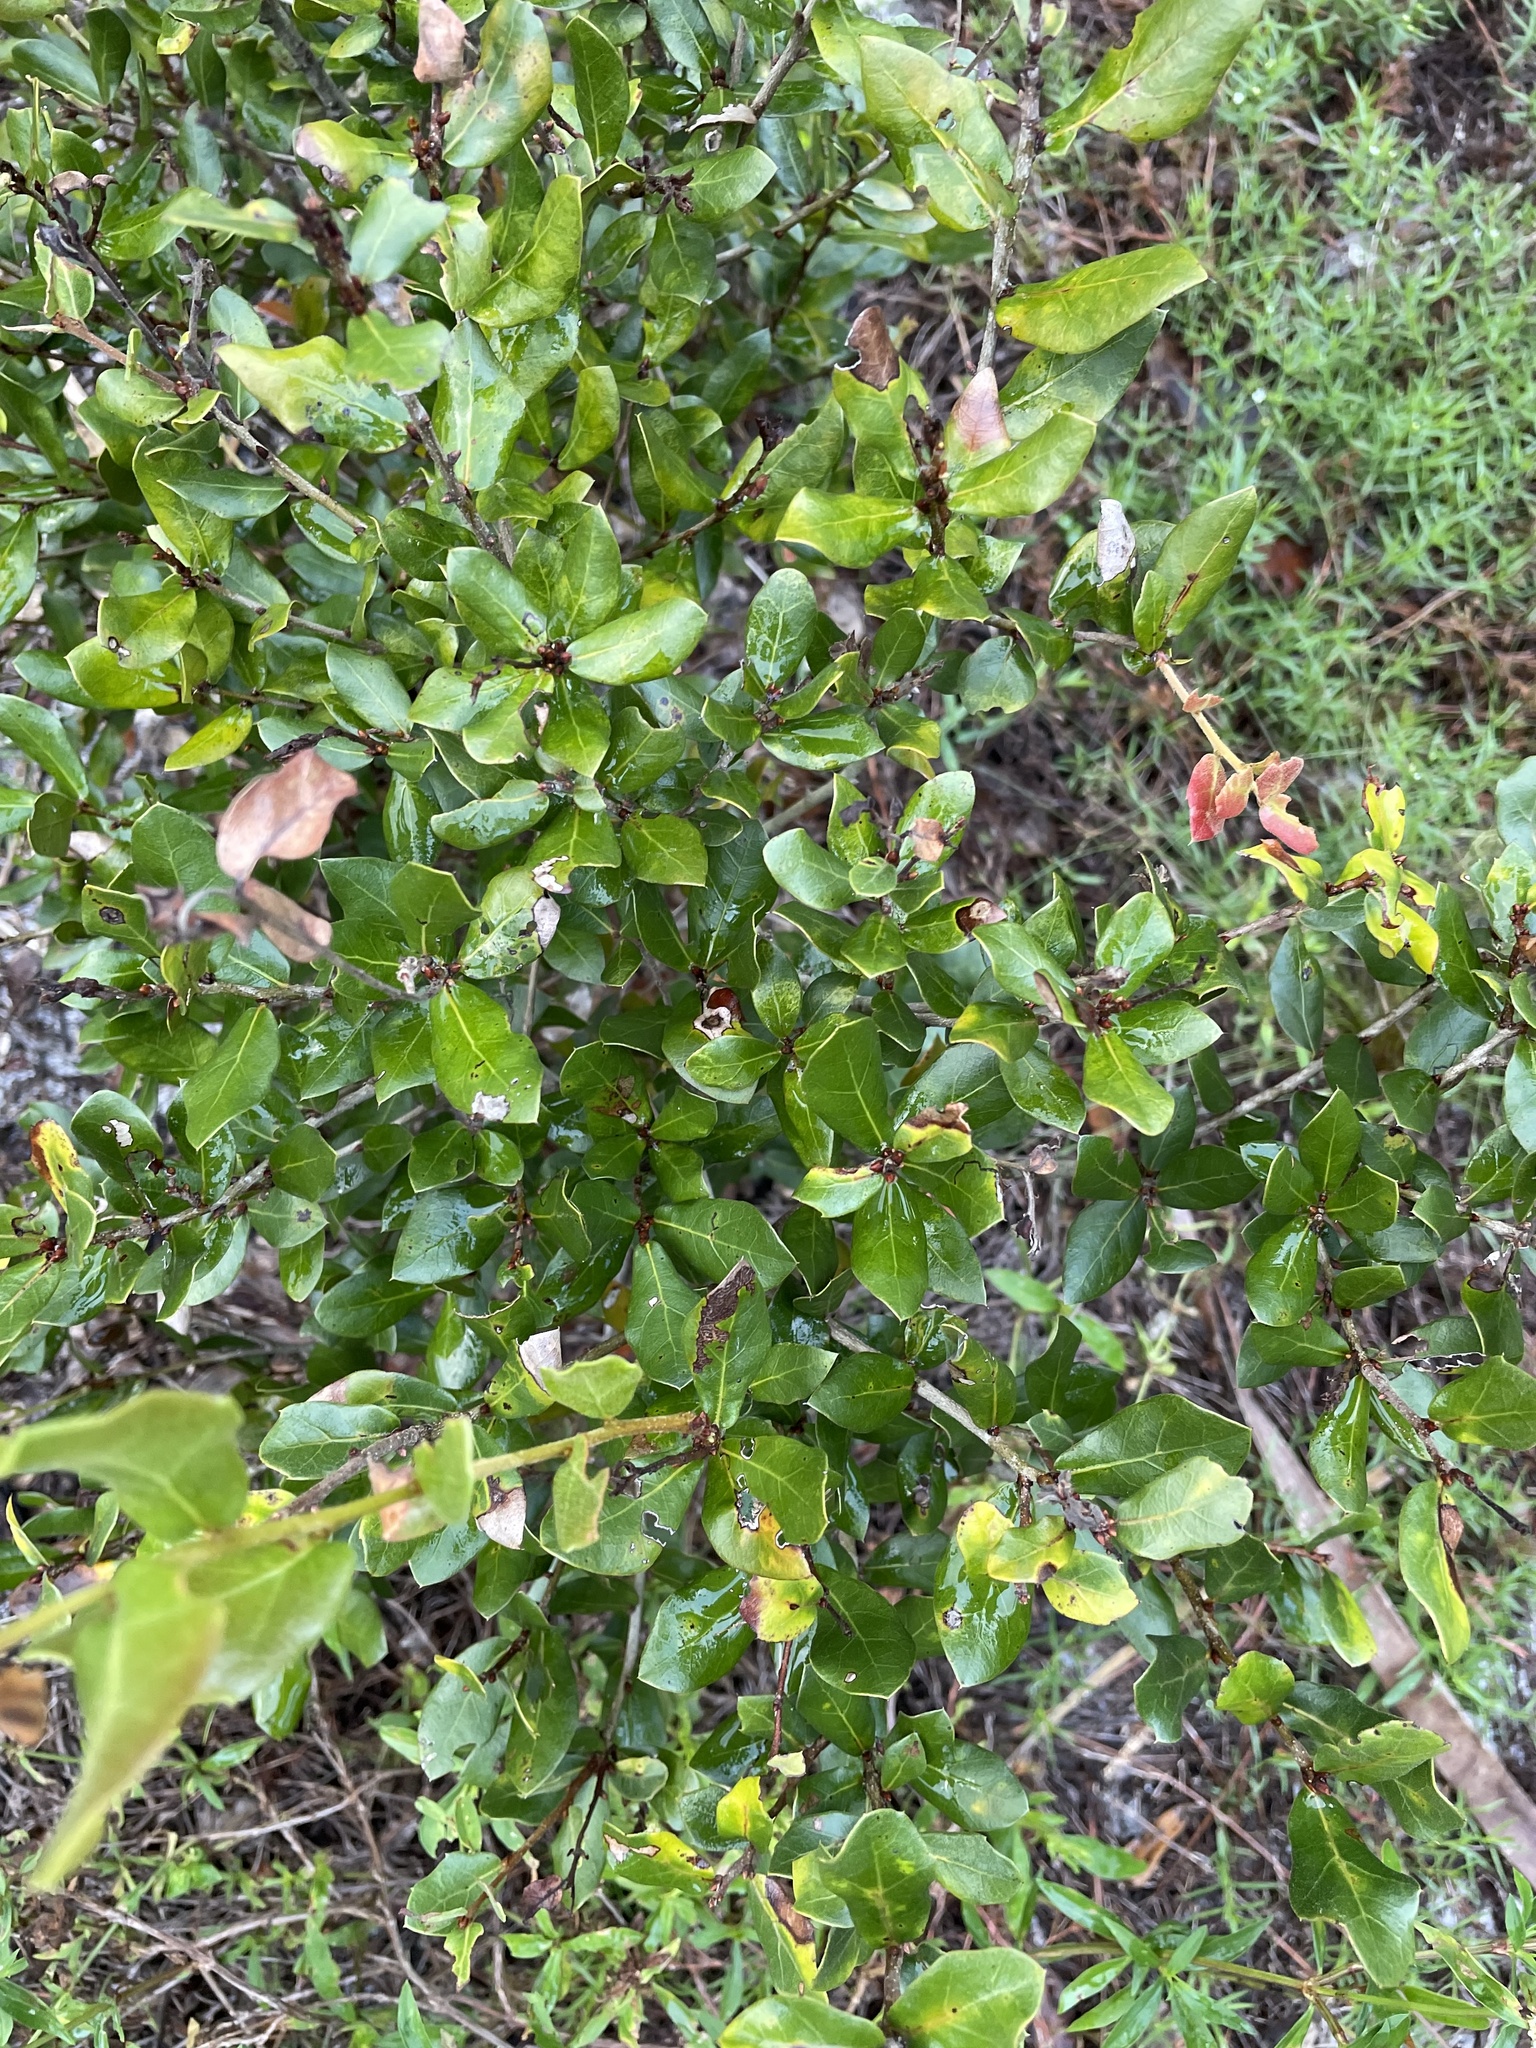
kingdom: Plantae
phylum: Tracheophyta
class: Magnoliopsida
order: Fagales
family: Fagaceae
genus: Quercus
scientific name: Quercus myrtifolia
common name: Myrtle oak
